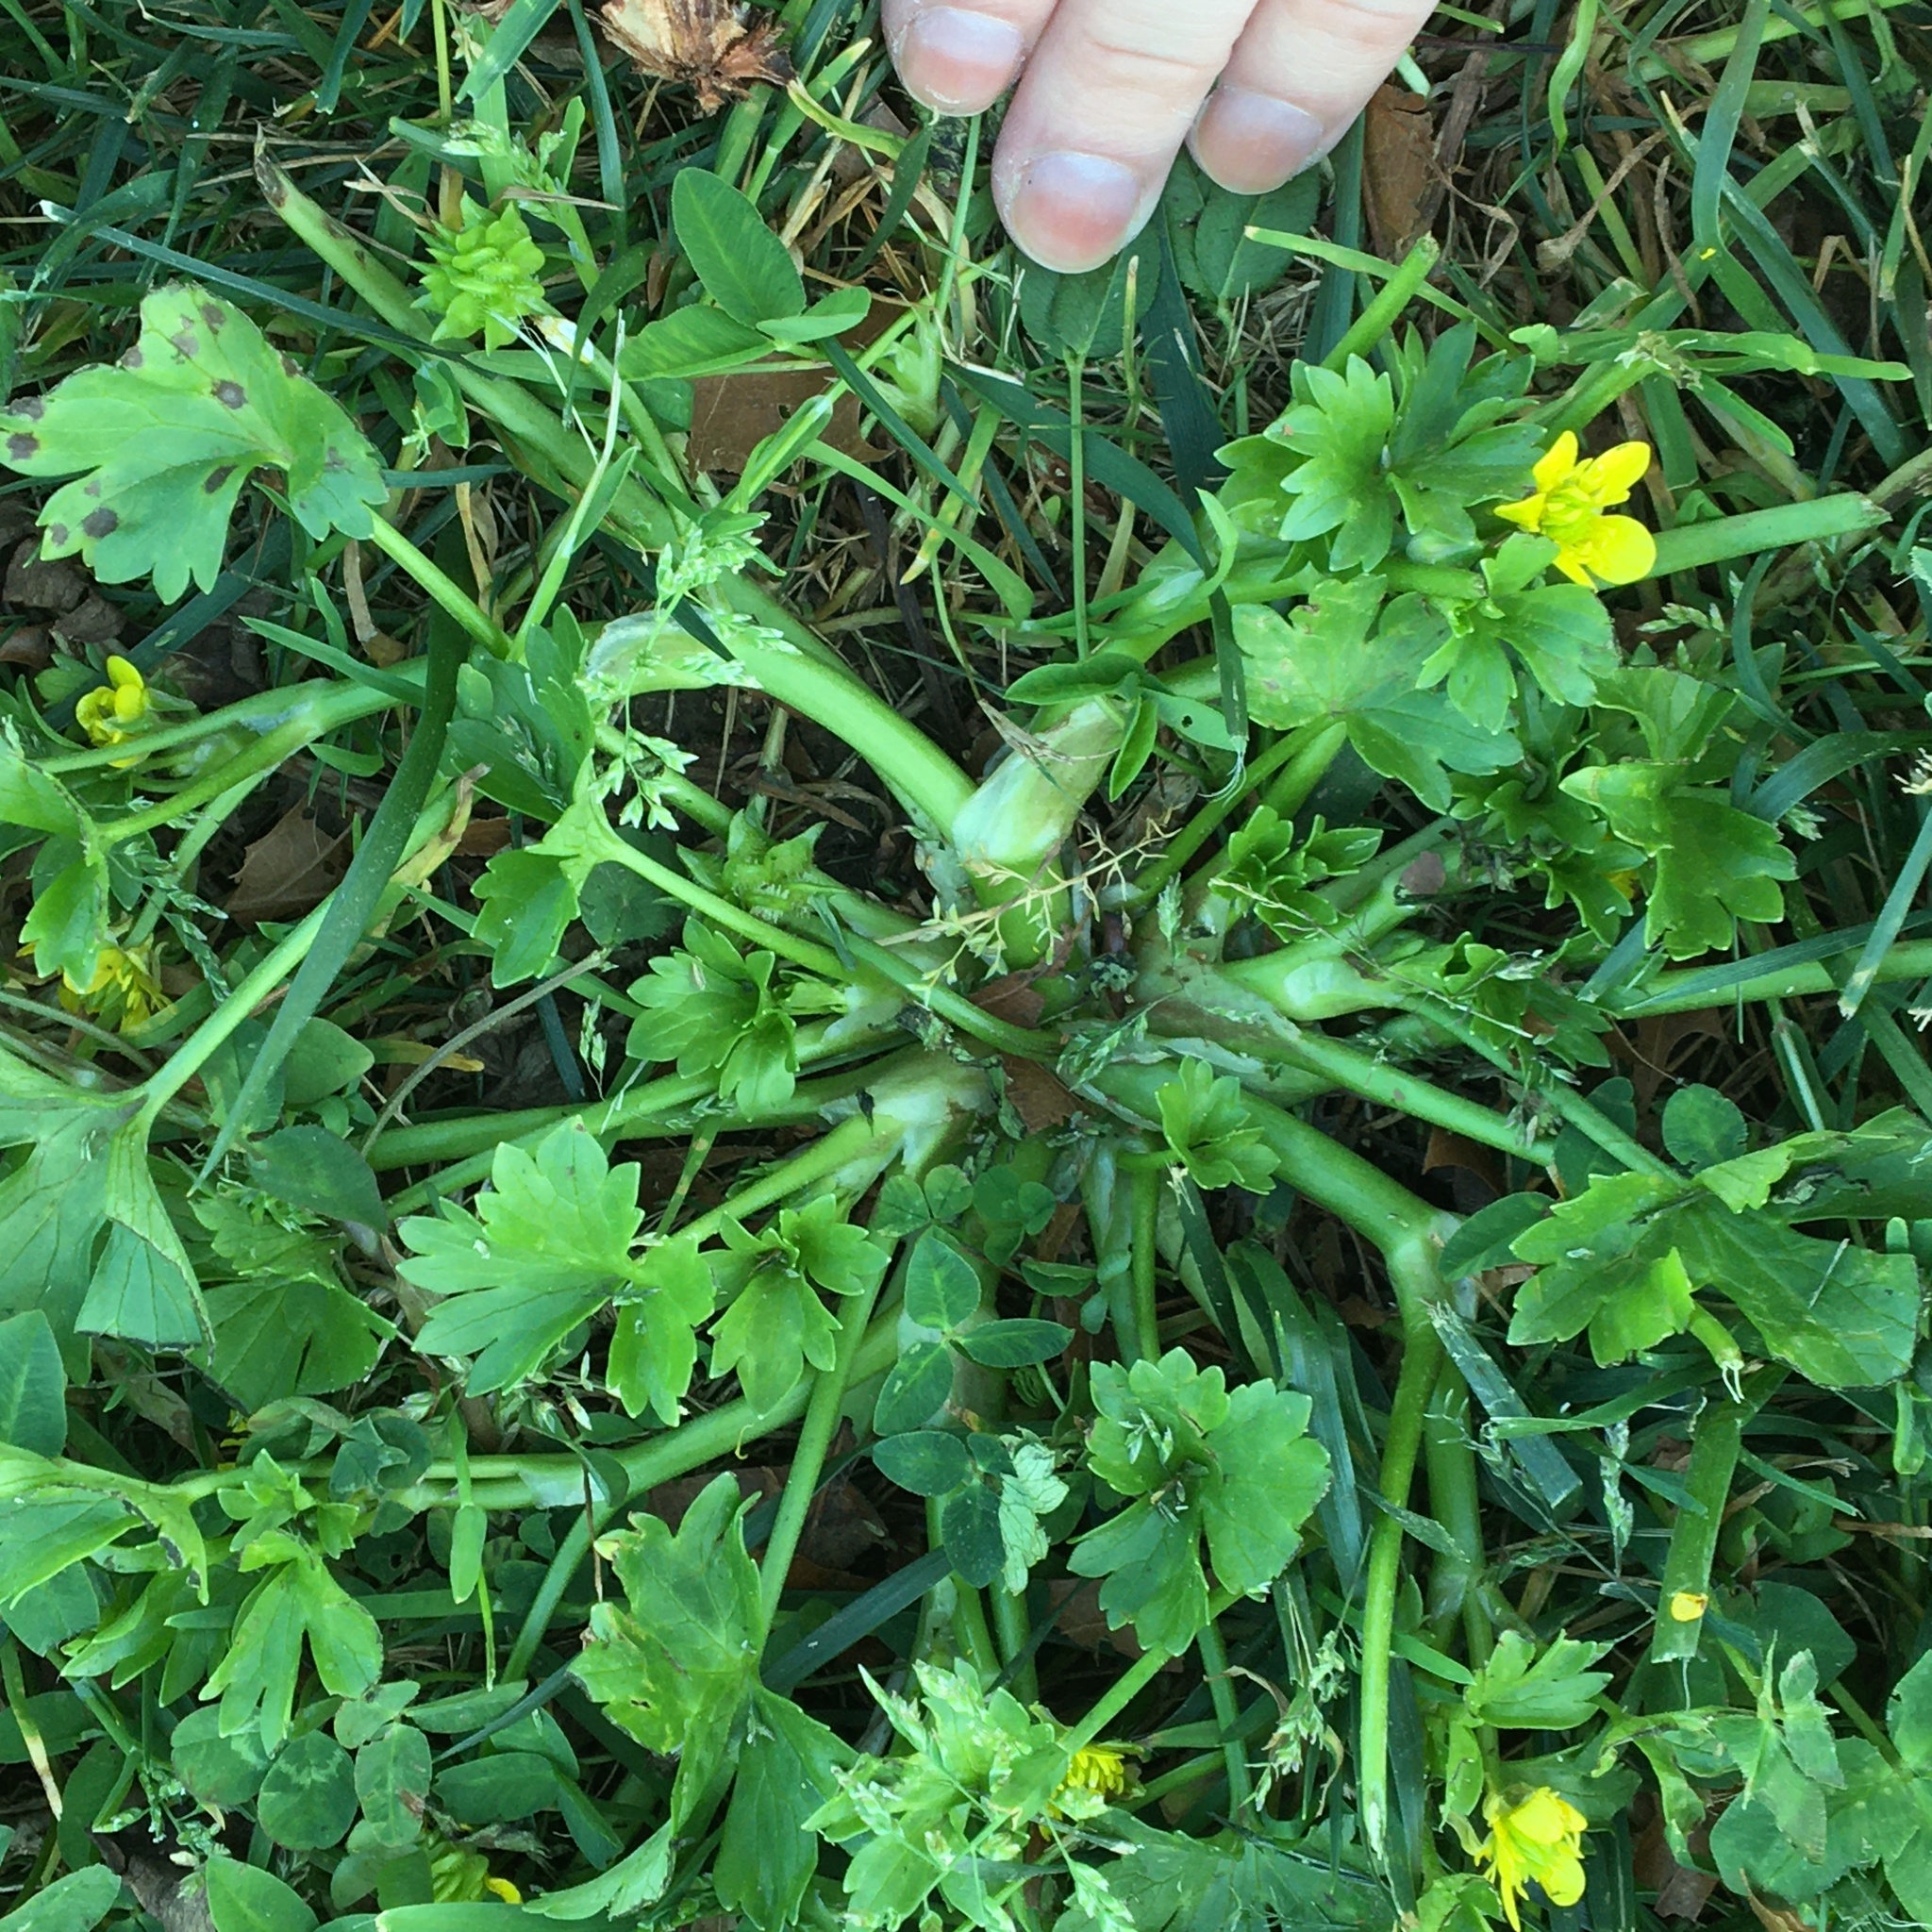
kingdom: Plantae
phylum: Tracheophyta
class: Magnoliopsida
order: Ranunculales
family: Ranunculaceae
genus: Ranunculus
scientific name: Ranunculus muricatus
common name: Rough-fruited buttercup
